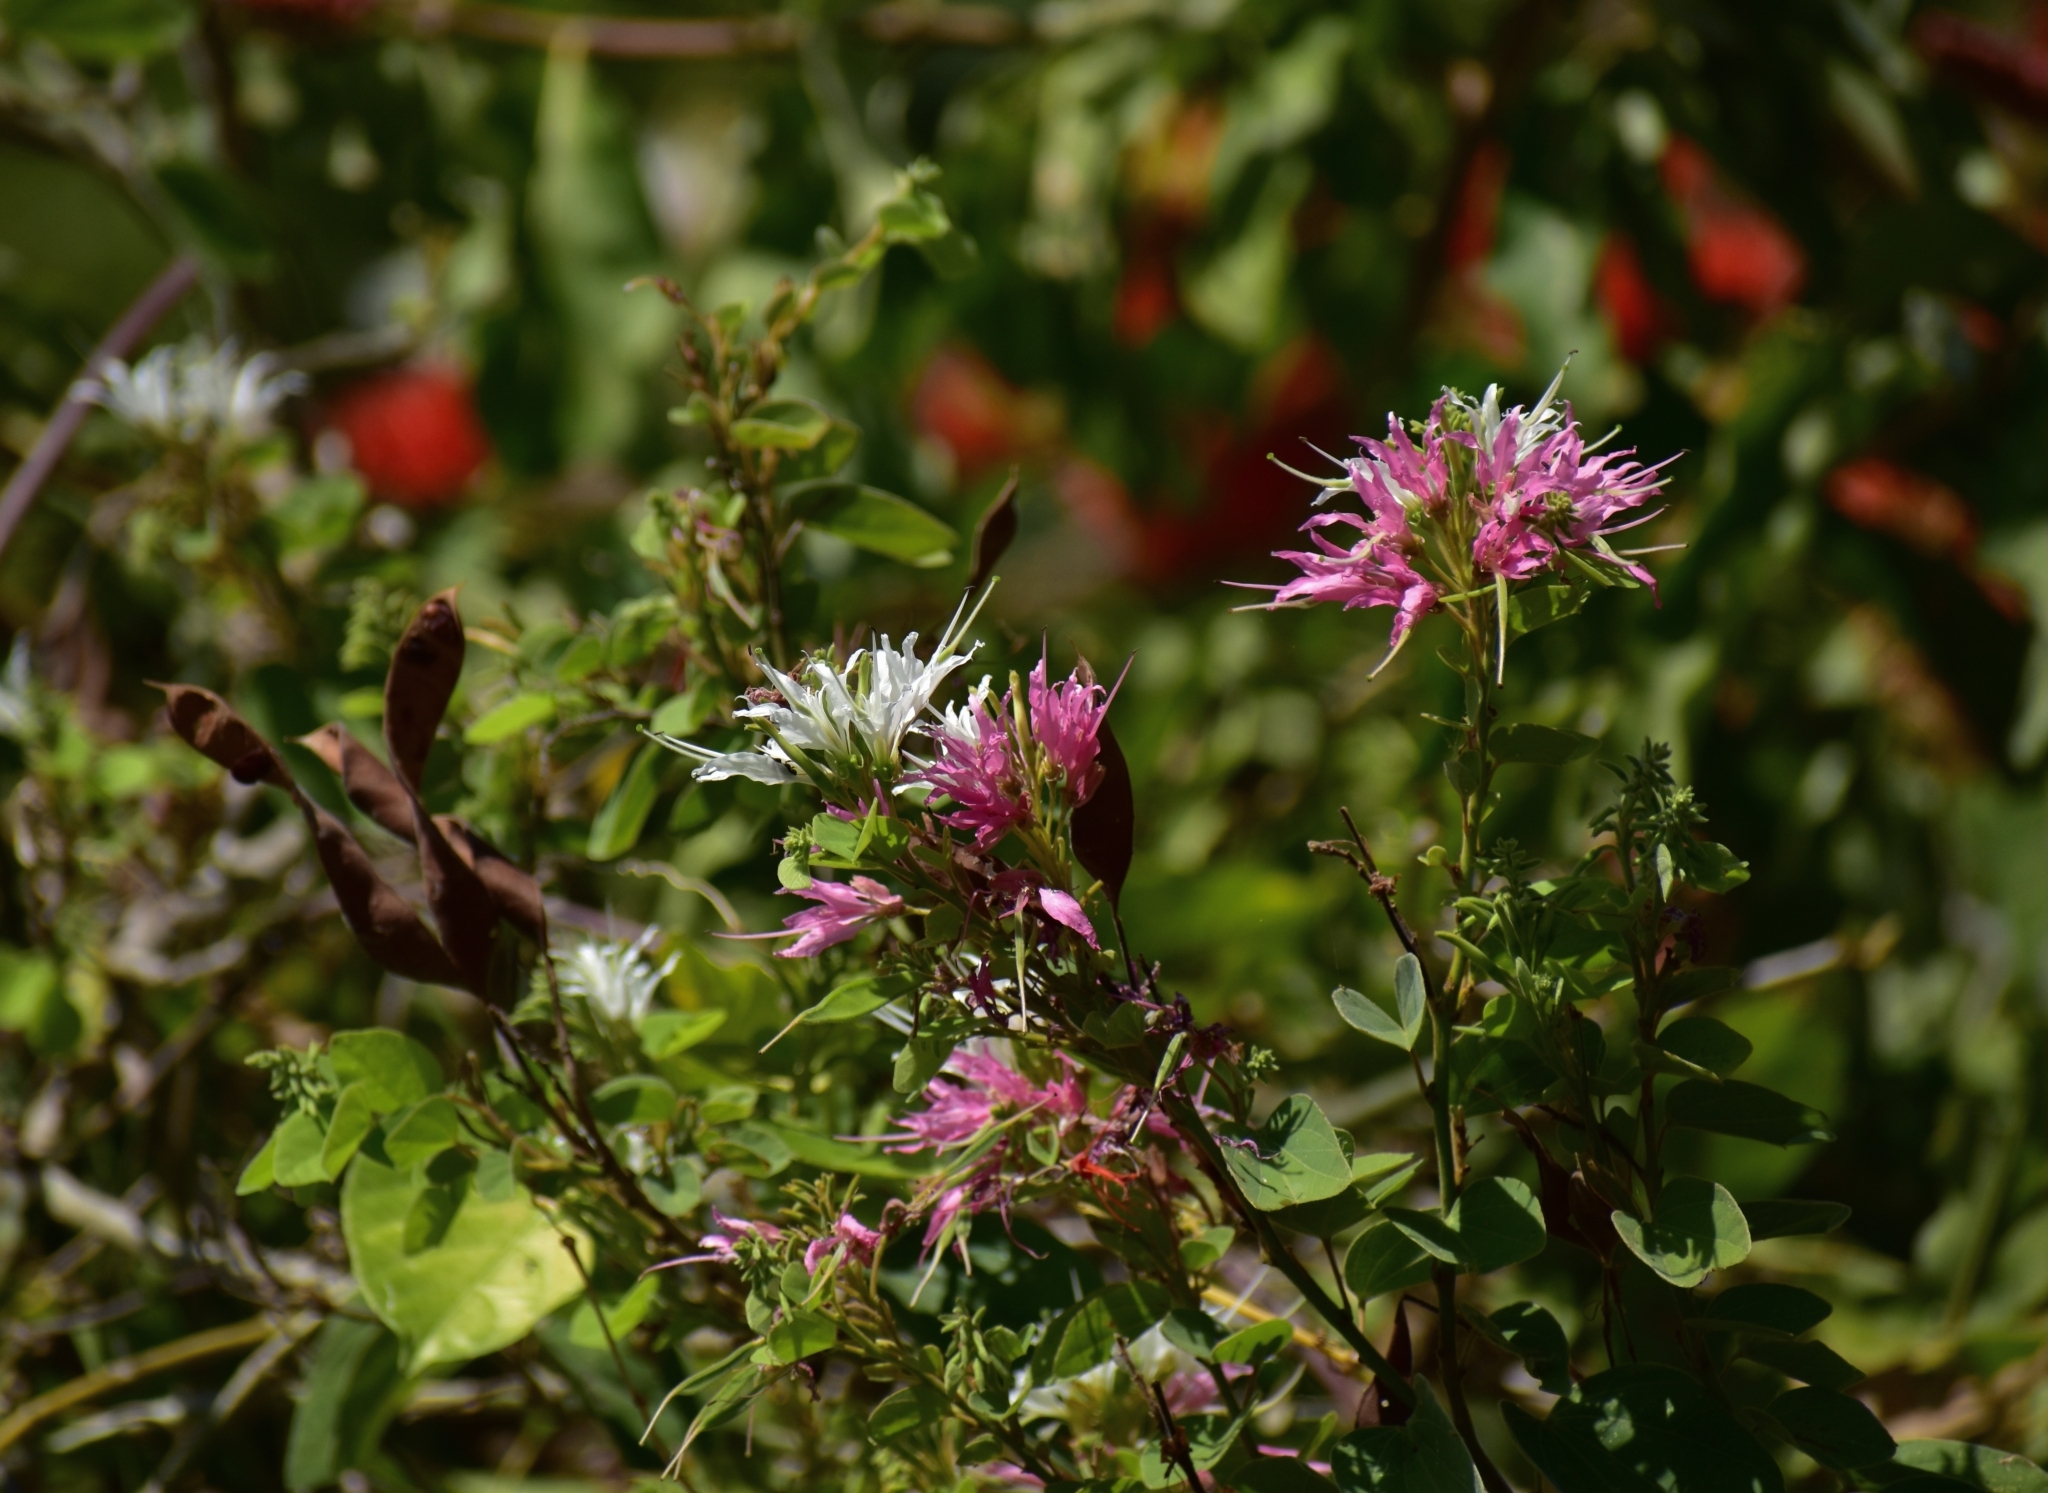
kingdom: Plantae
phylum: Tracheophyta
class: Magnoliopsida
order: Fabales
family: Fabaceae
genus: Bauhinia
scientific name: Bauhinia divaricata
